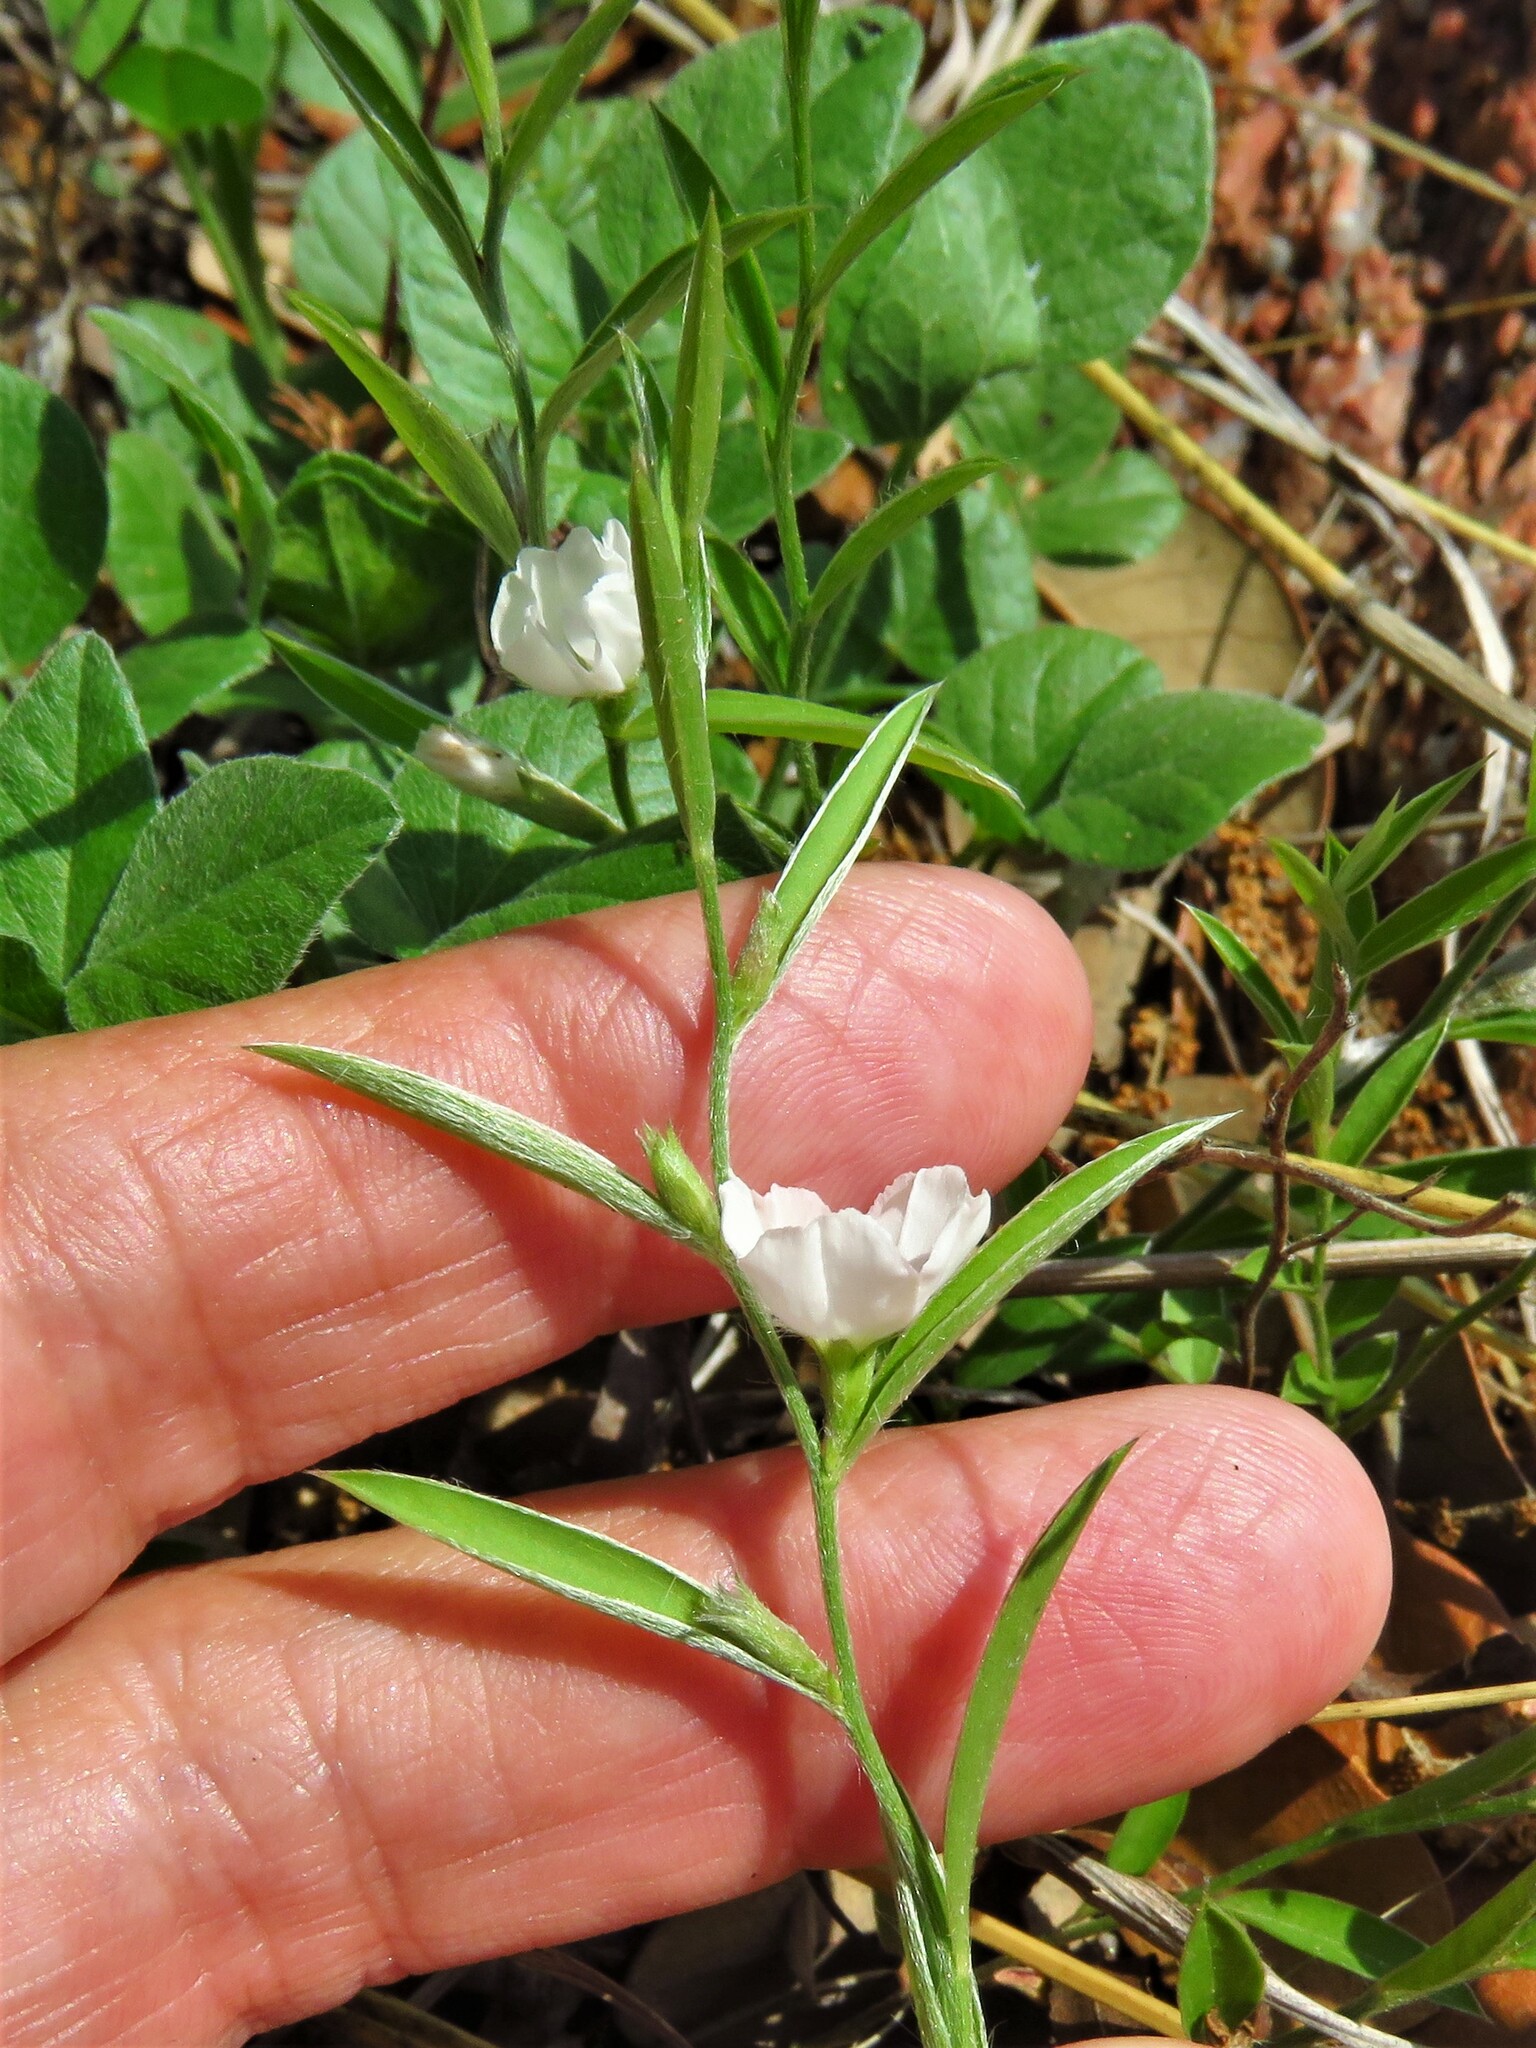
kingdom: Plantae
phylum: Tracheophyta
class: Magnoliopsida
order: Solanales
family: Convolvulaceae
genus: Evolvulus
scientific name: Evolvulus sericeus
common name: Blue dots
